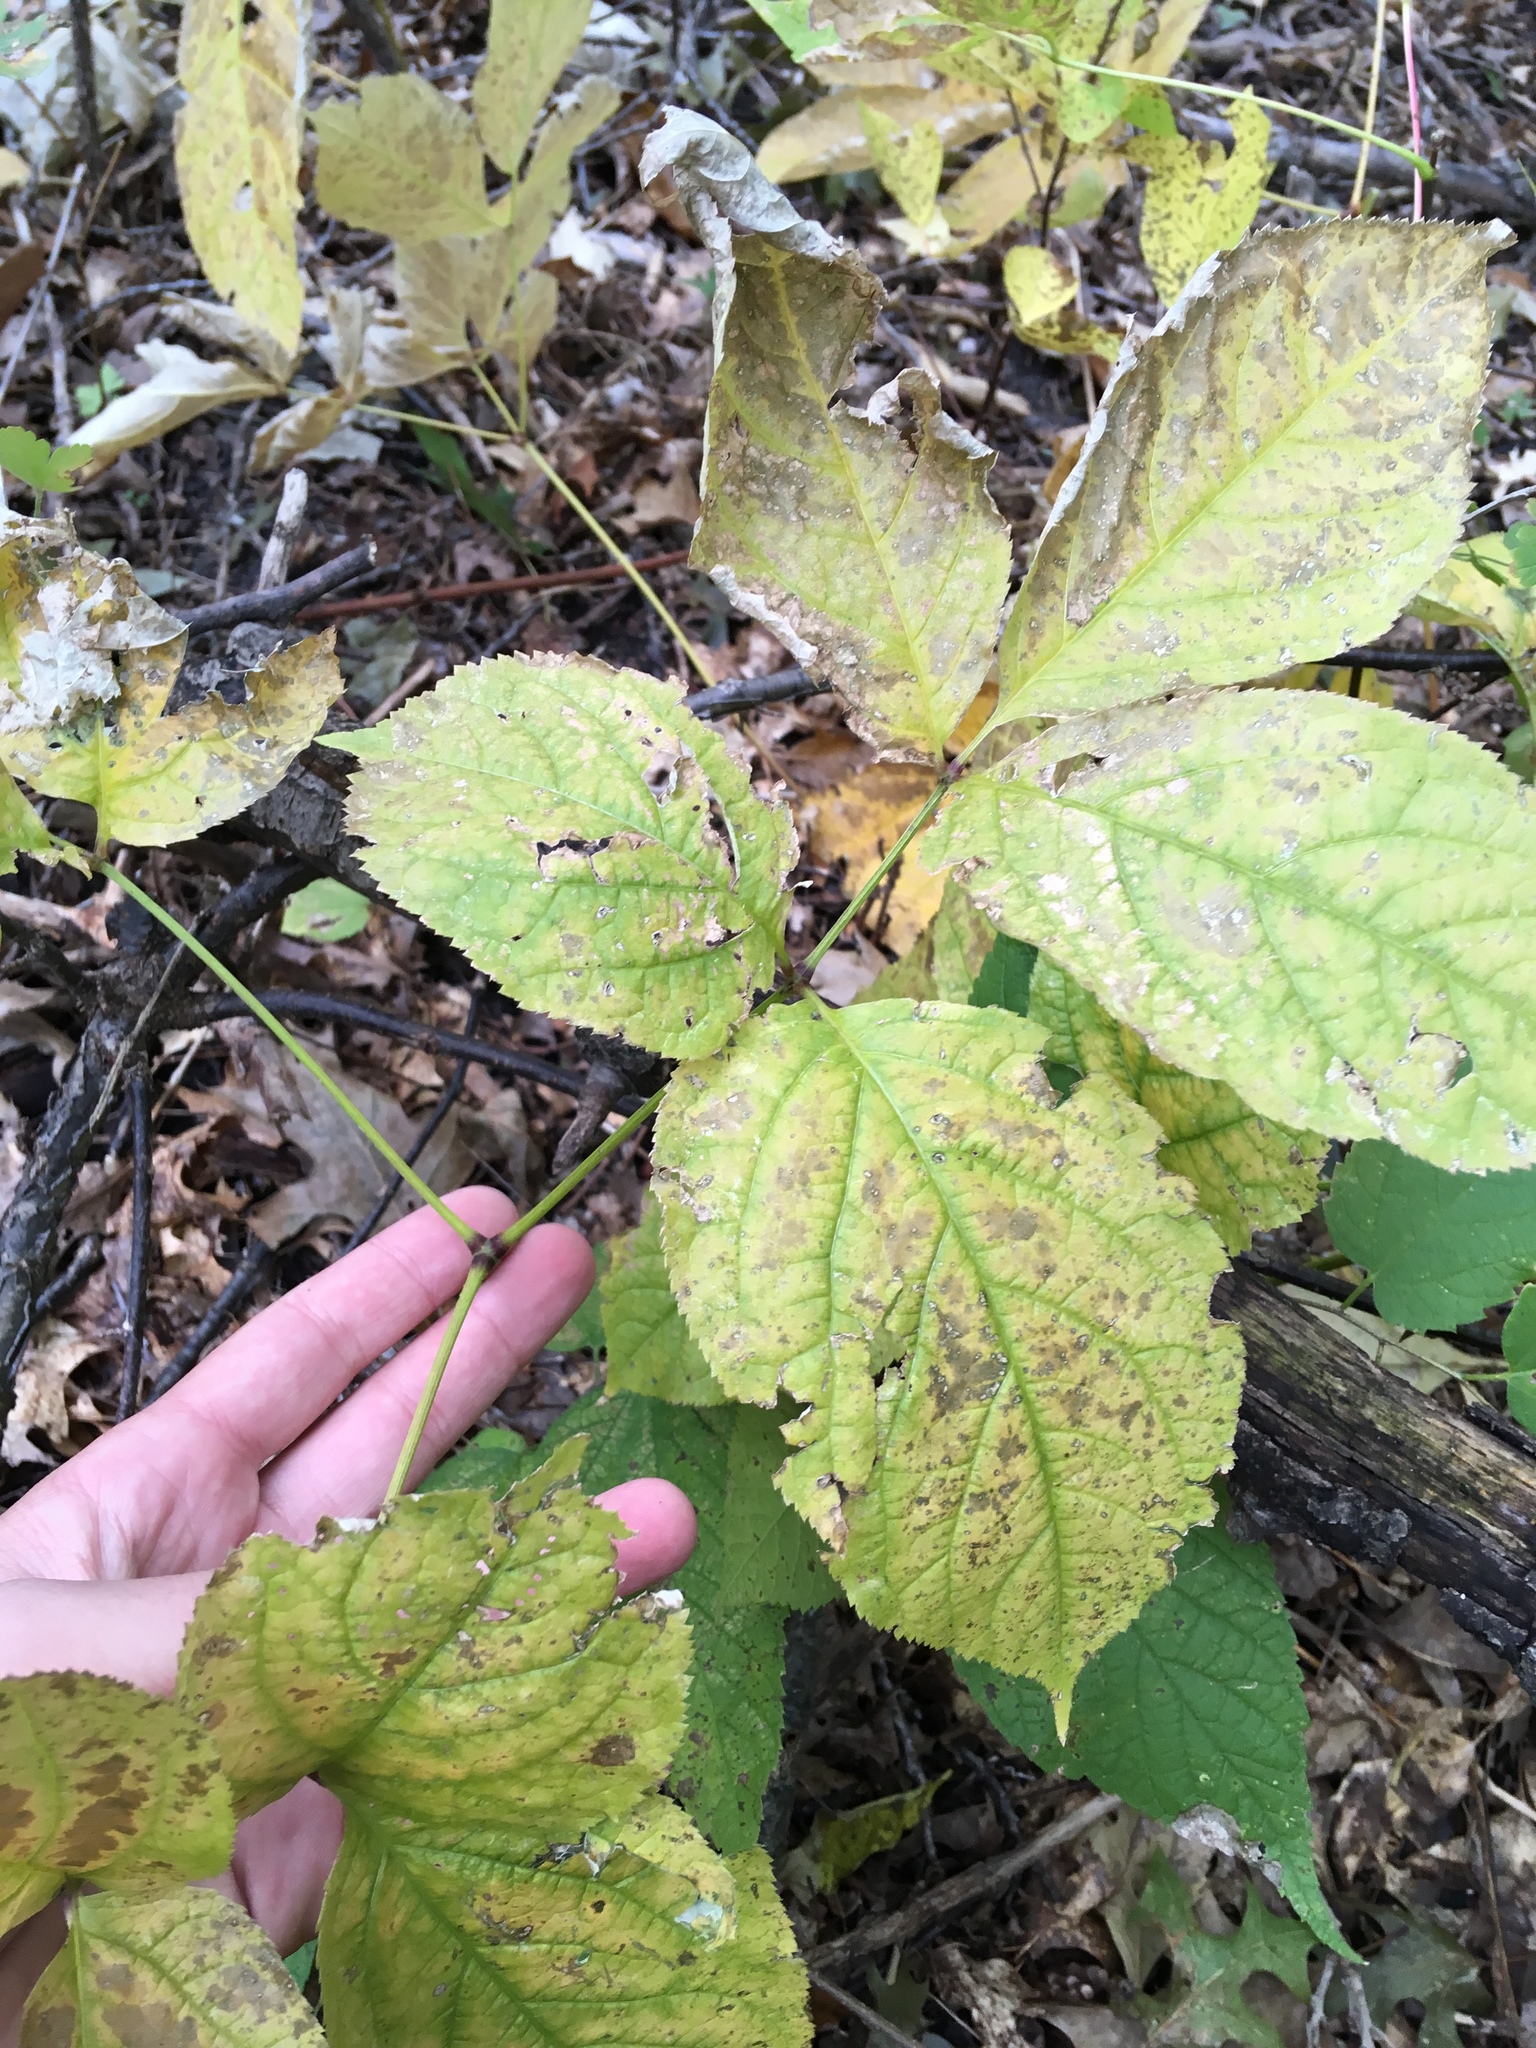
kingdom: Plantae
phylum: Tracheophyta
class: Magnoliopsida
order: Apiales
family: Araliaceae
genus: Aralia
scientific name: Aralia nudicaulis
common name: Wild sarsaparilla
